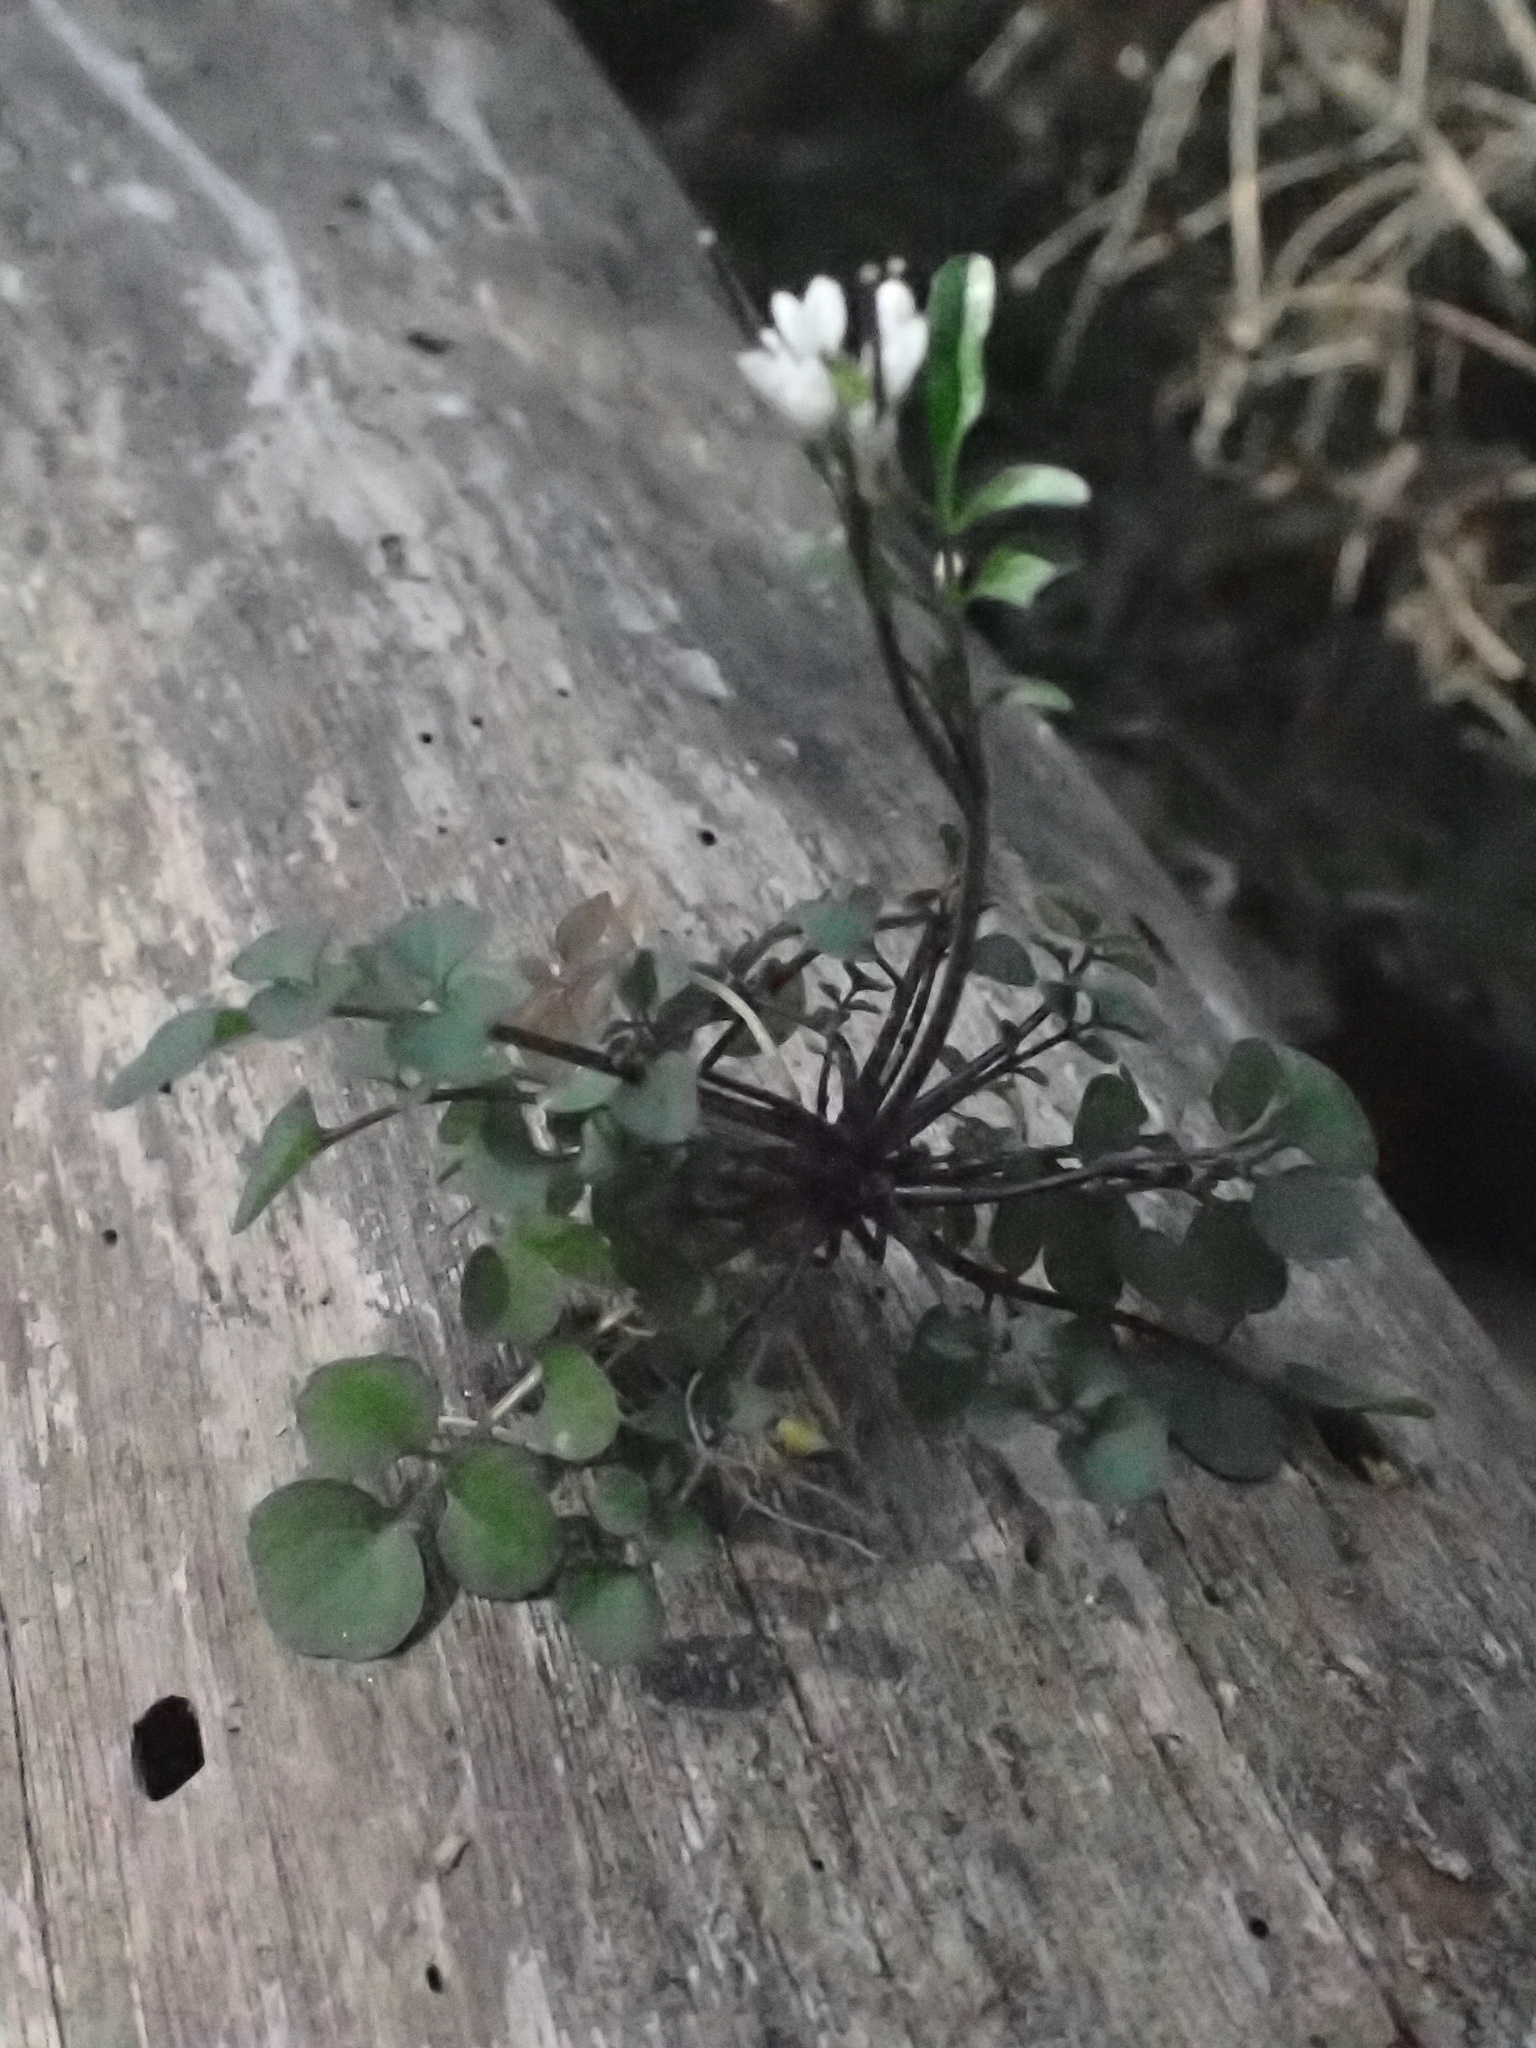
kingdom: Plantae
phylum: Tracheophyta
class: Magnoliopsida
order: Brassicales
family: Brassicaceae
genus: Cardamine
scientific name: Cardamine hirsuta
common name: Hairy bittercress
